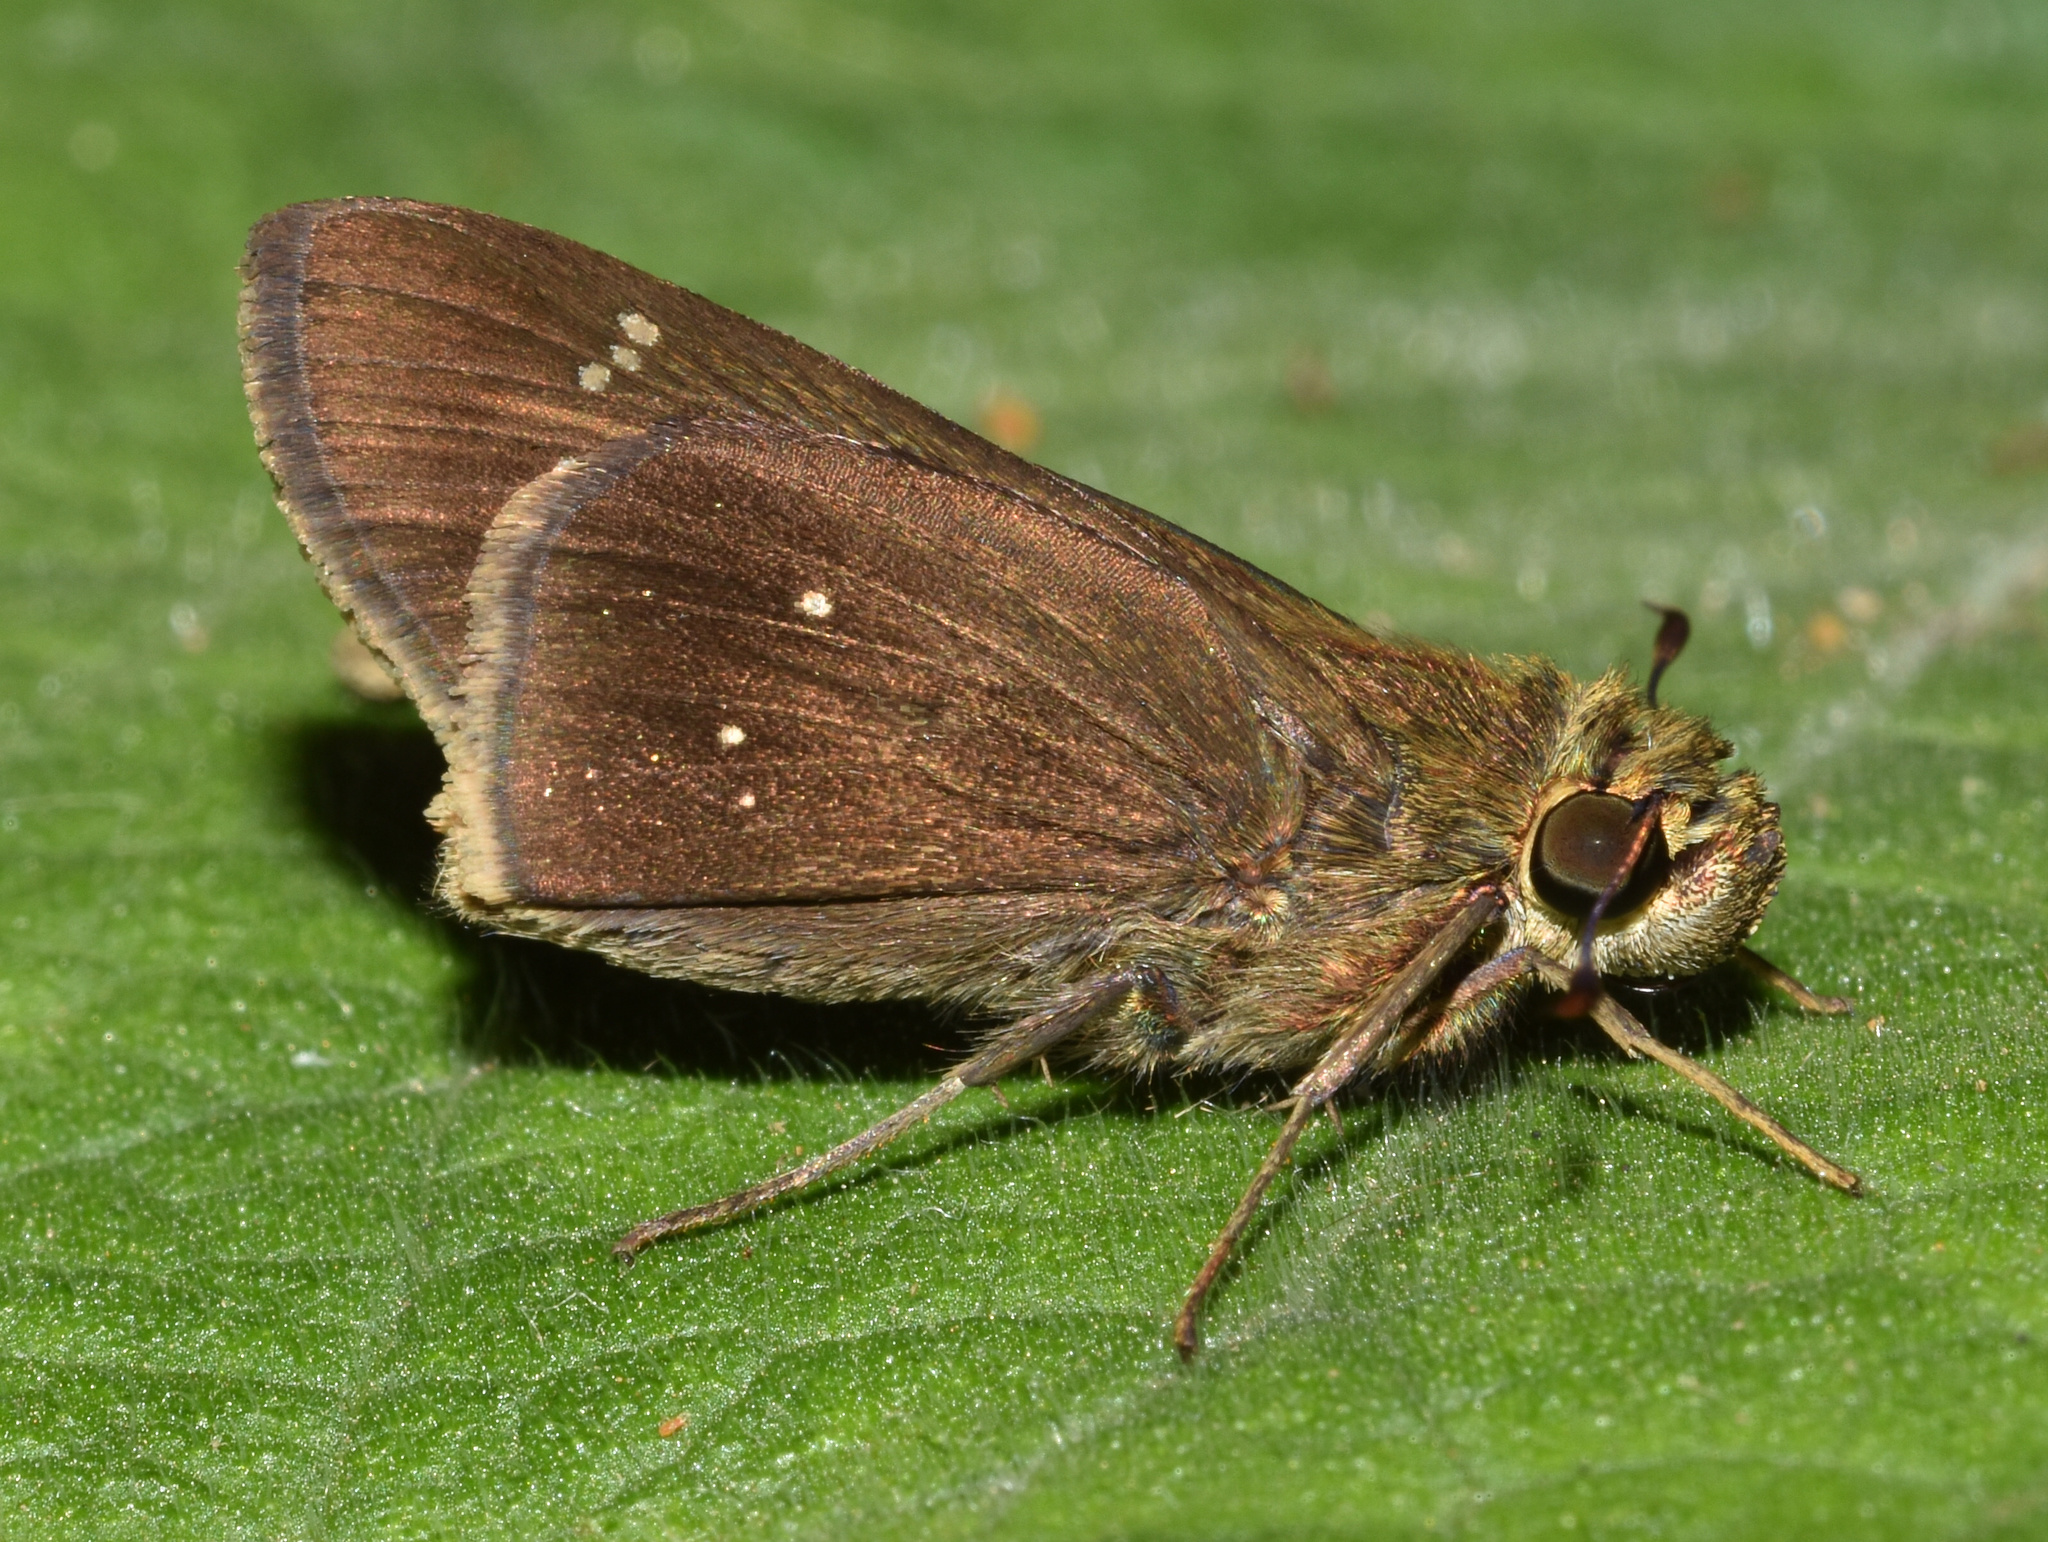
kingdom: Animalia
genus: Torbenlarsenia
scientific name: Torbenlarsenia
